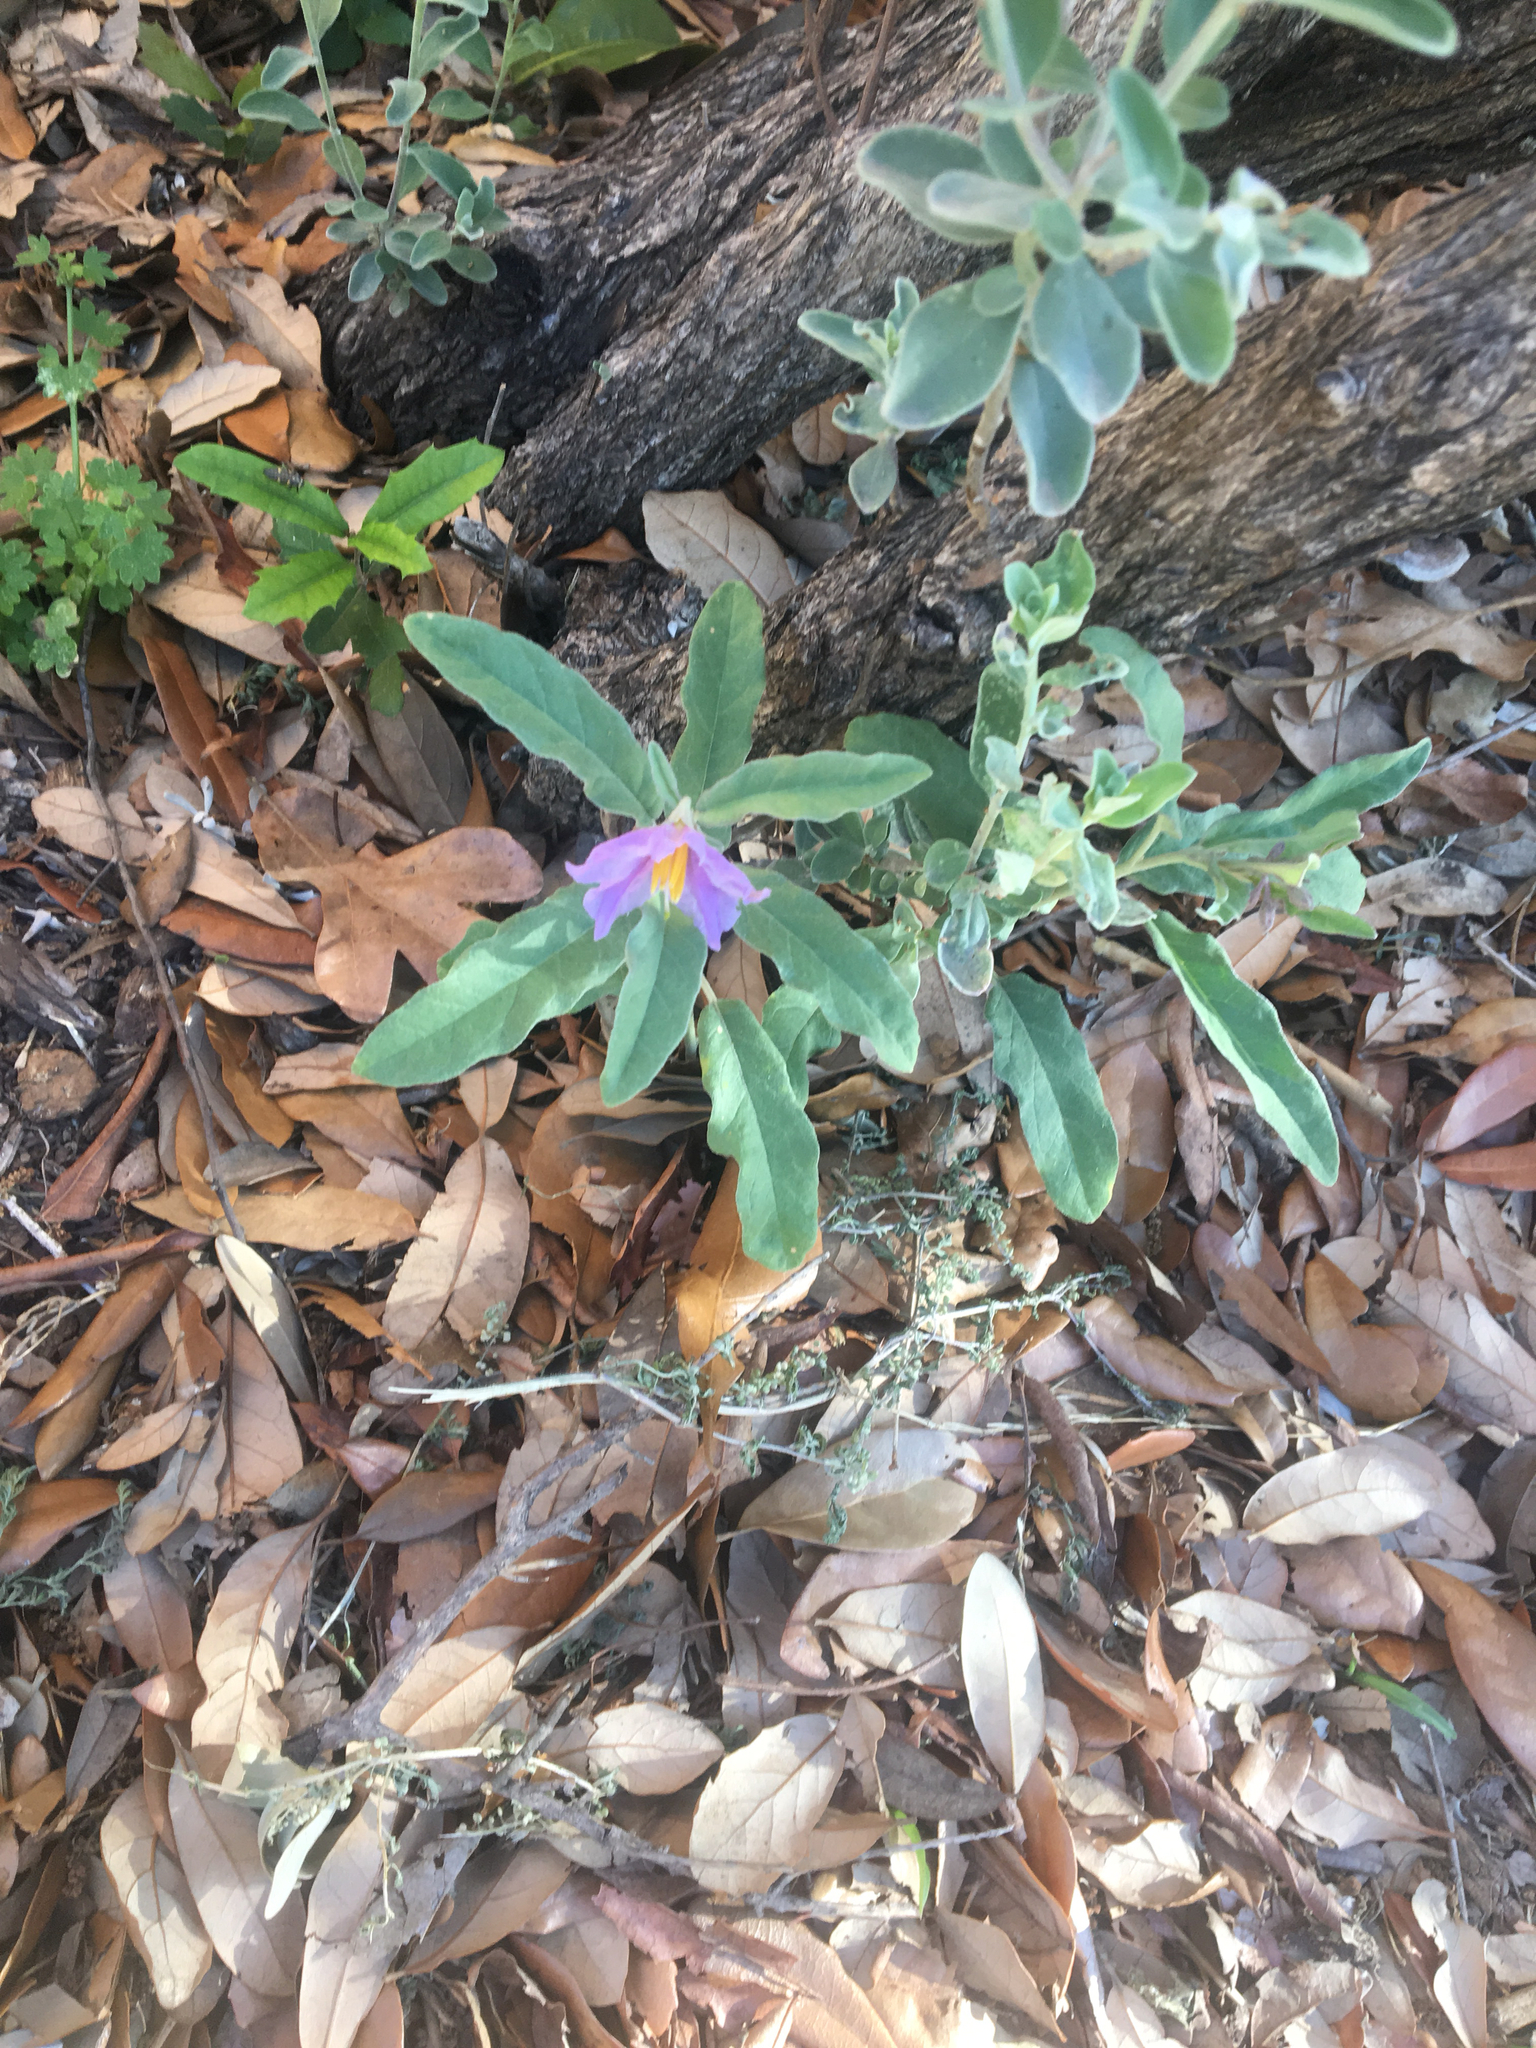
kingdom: Plantae
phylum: Tracheophyta
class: Magnoliopsida
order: Solanales
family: Solanaceae
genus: Solanum
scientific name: Solanum elaeagnifolium
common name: Silverleaf nightshade
